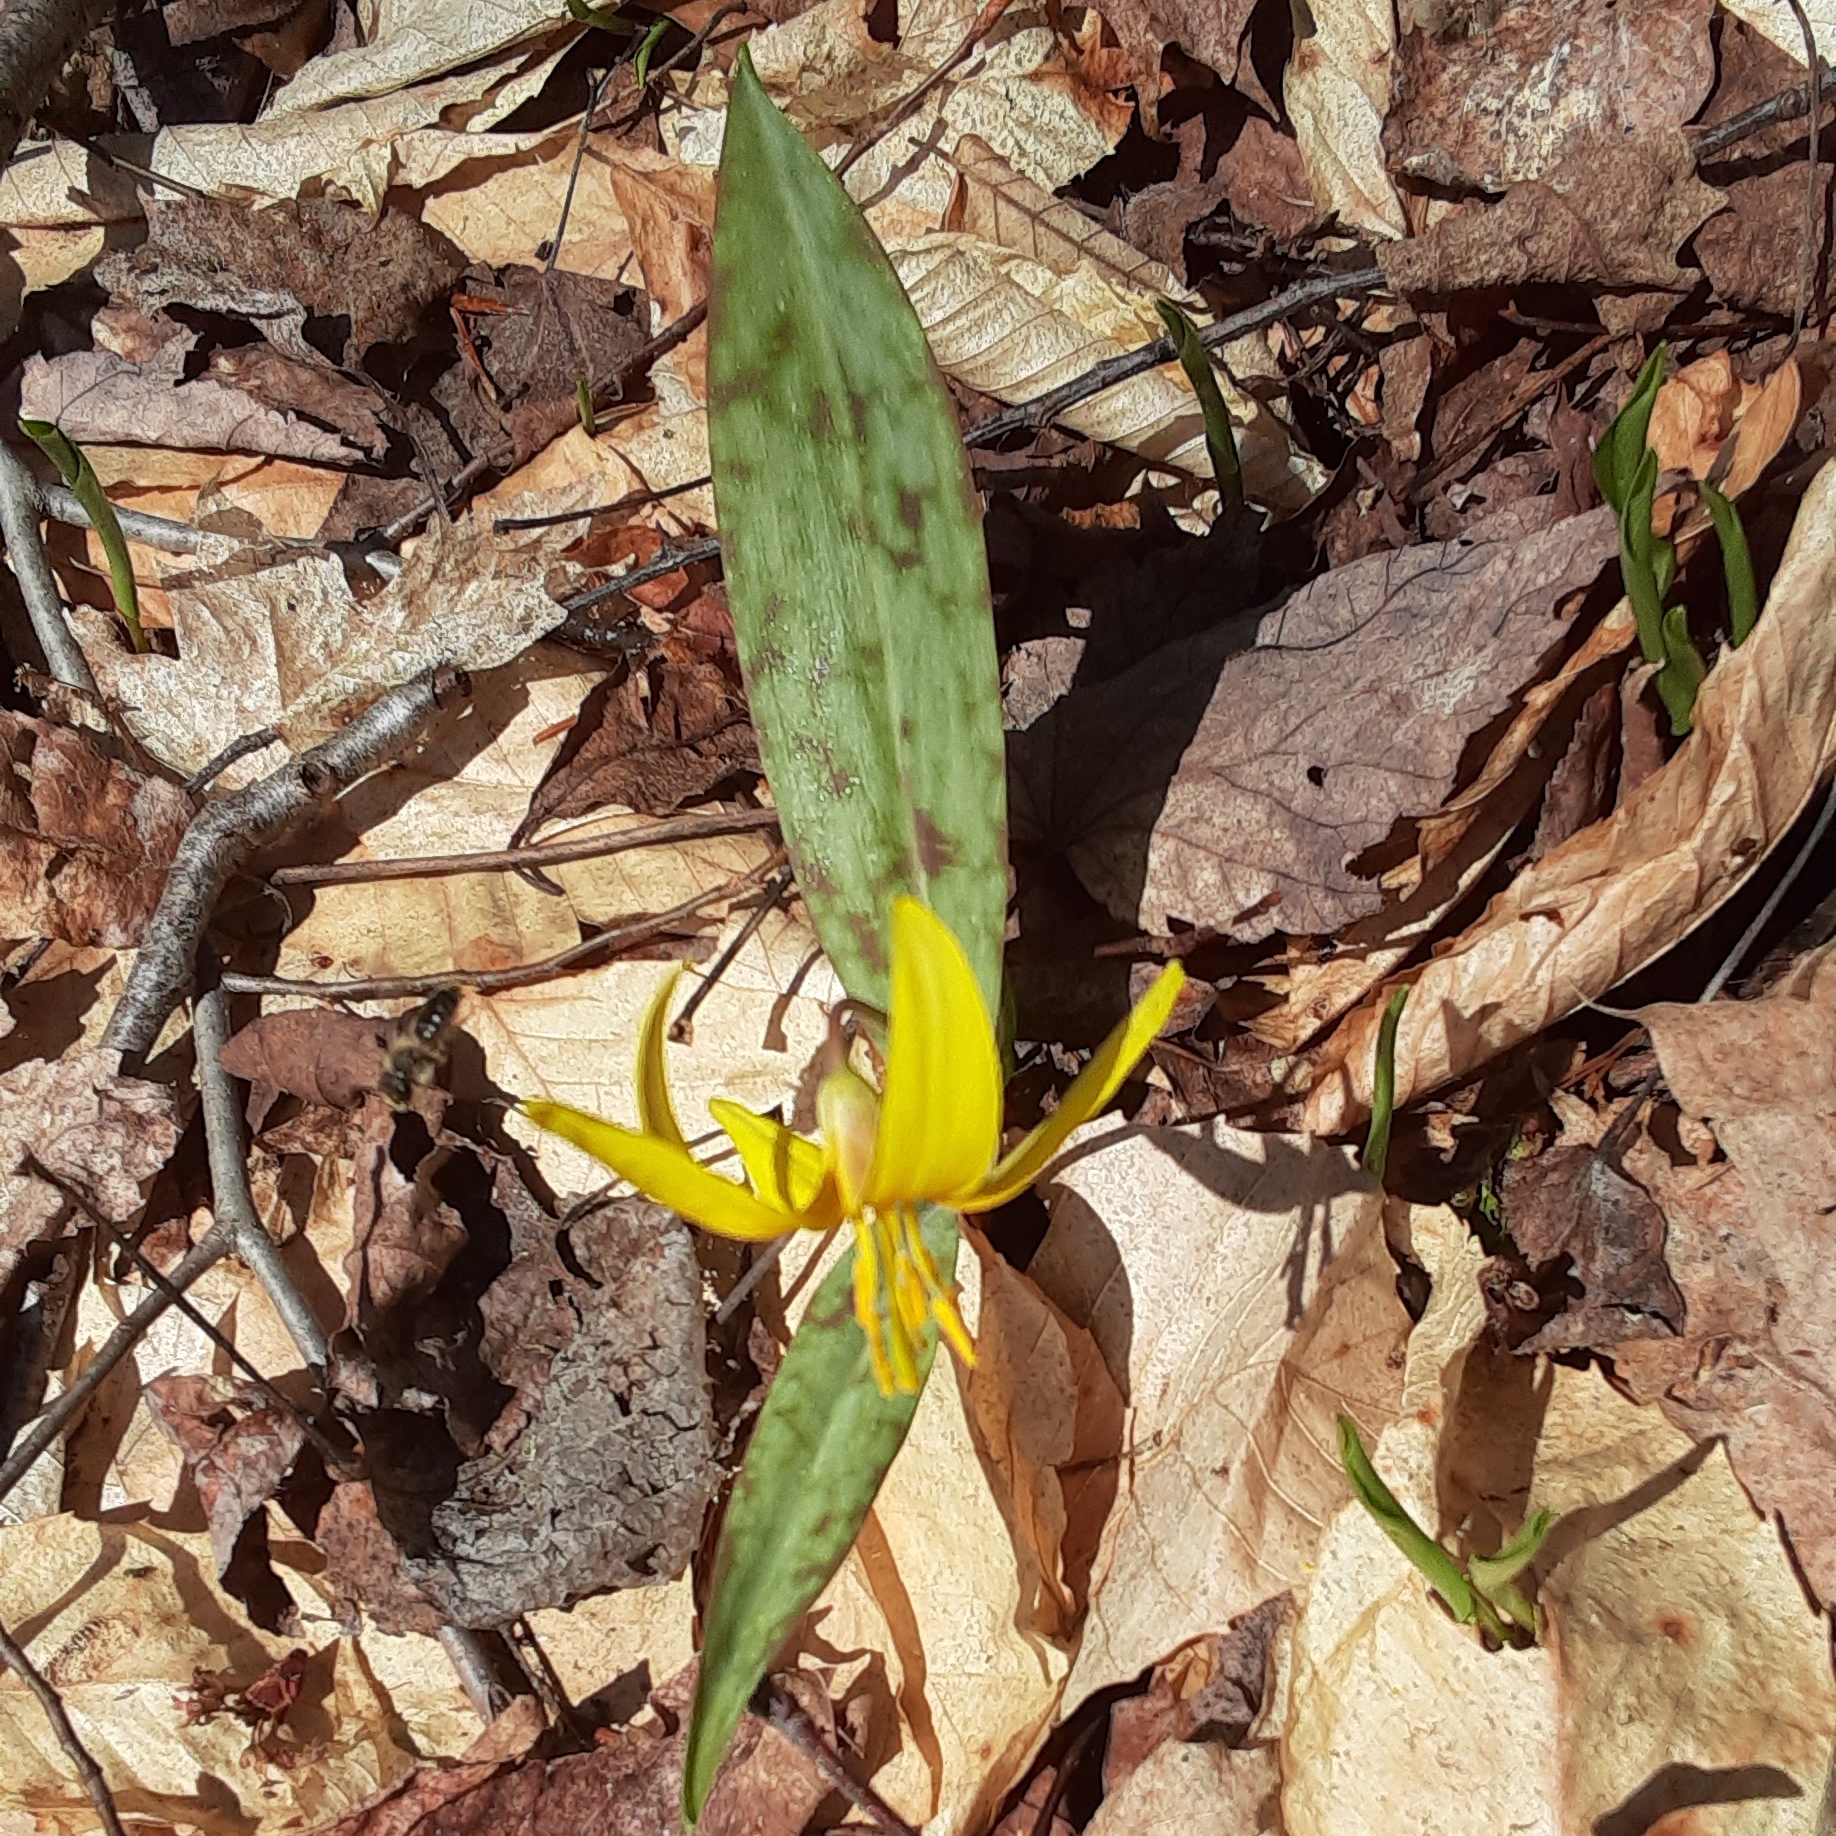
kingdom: Plantae
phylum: Tracheophyta
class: Liliopsida
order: Liliales
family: Liliaceae
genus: Erythronium
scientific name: Erythronium americanum
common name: Yellow adder's-tongue
